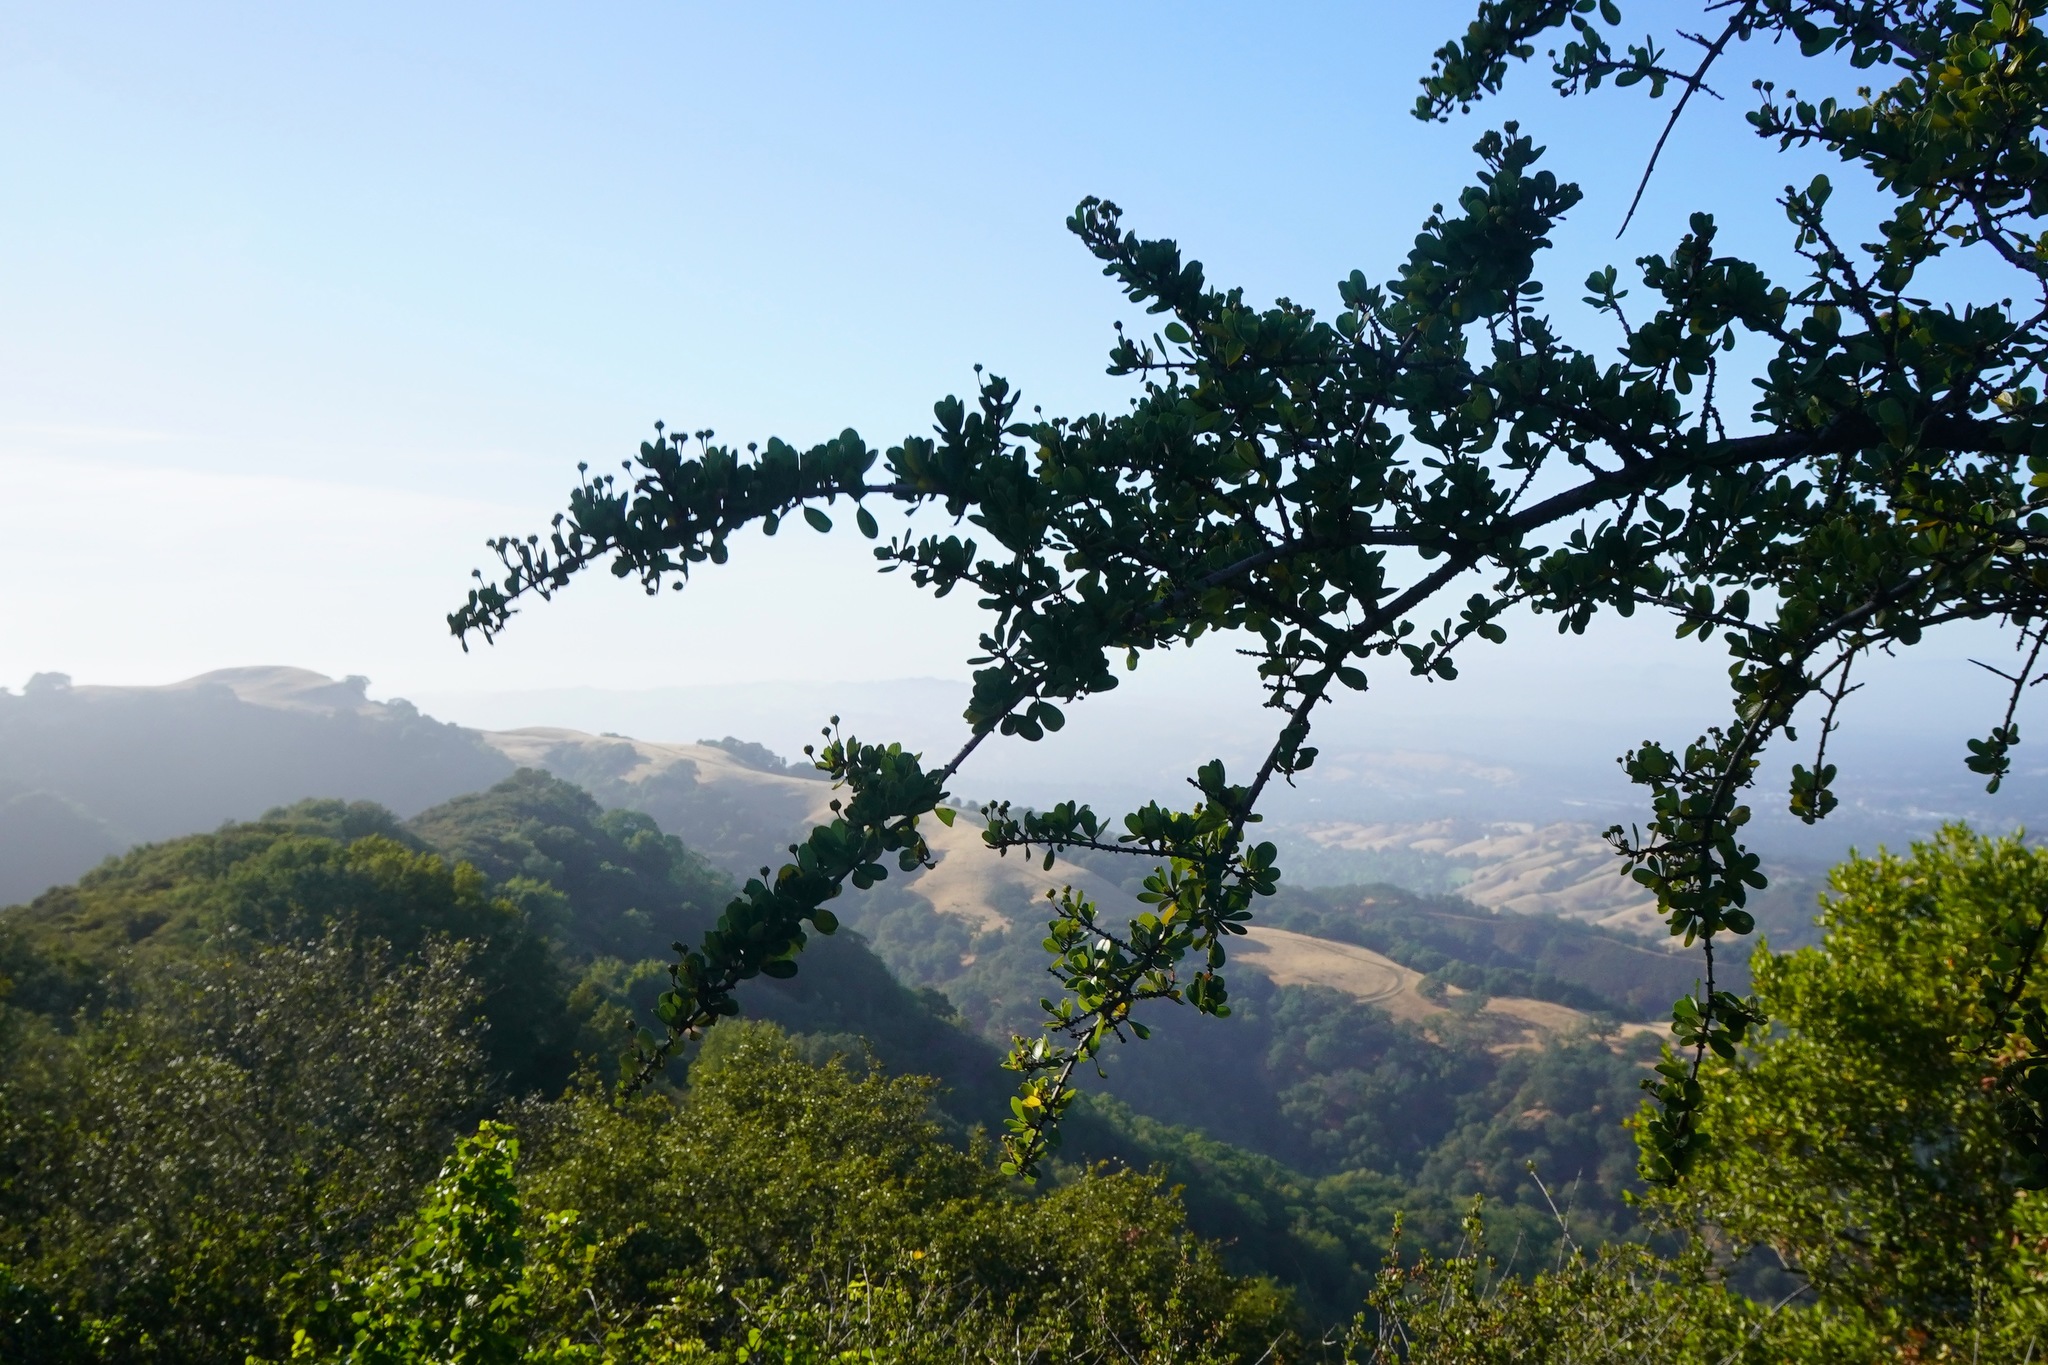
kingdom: Plantae
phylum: Tracheophyta
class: Magnoliopsida
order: Rosales
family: Rhamnaceae
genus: Ceanothus
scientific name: Ceanothus cuneatus
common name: Cuneate ceanothus
